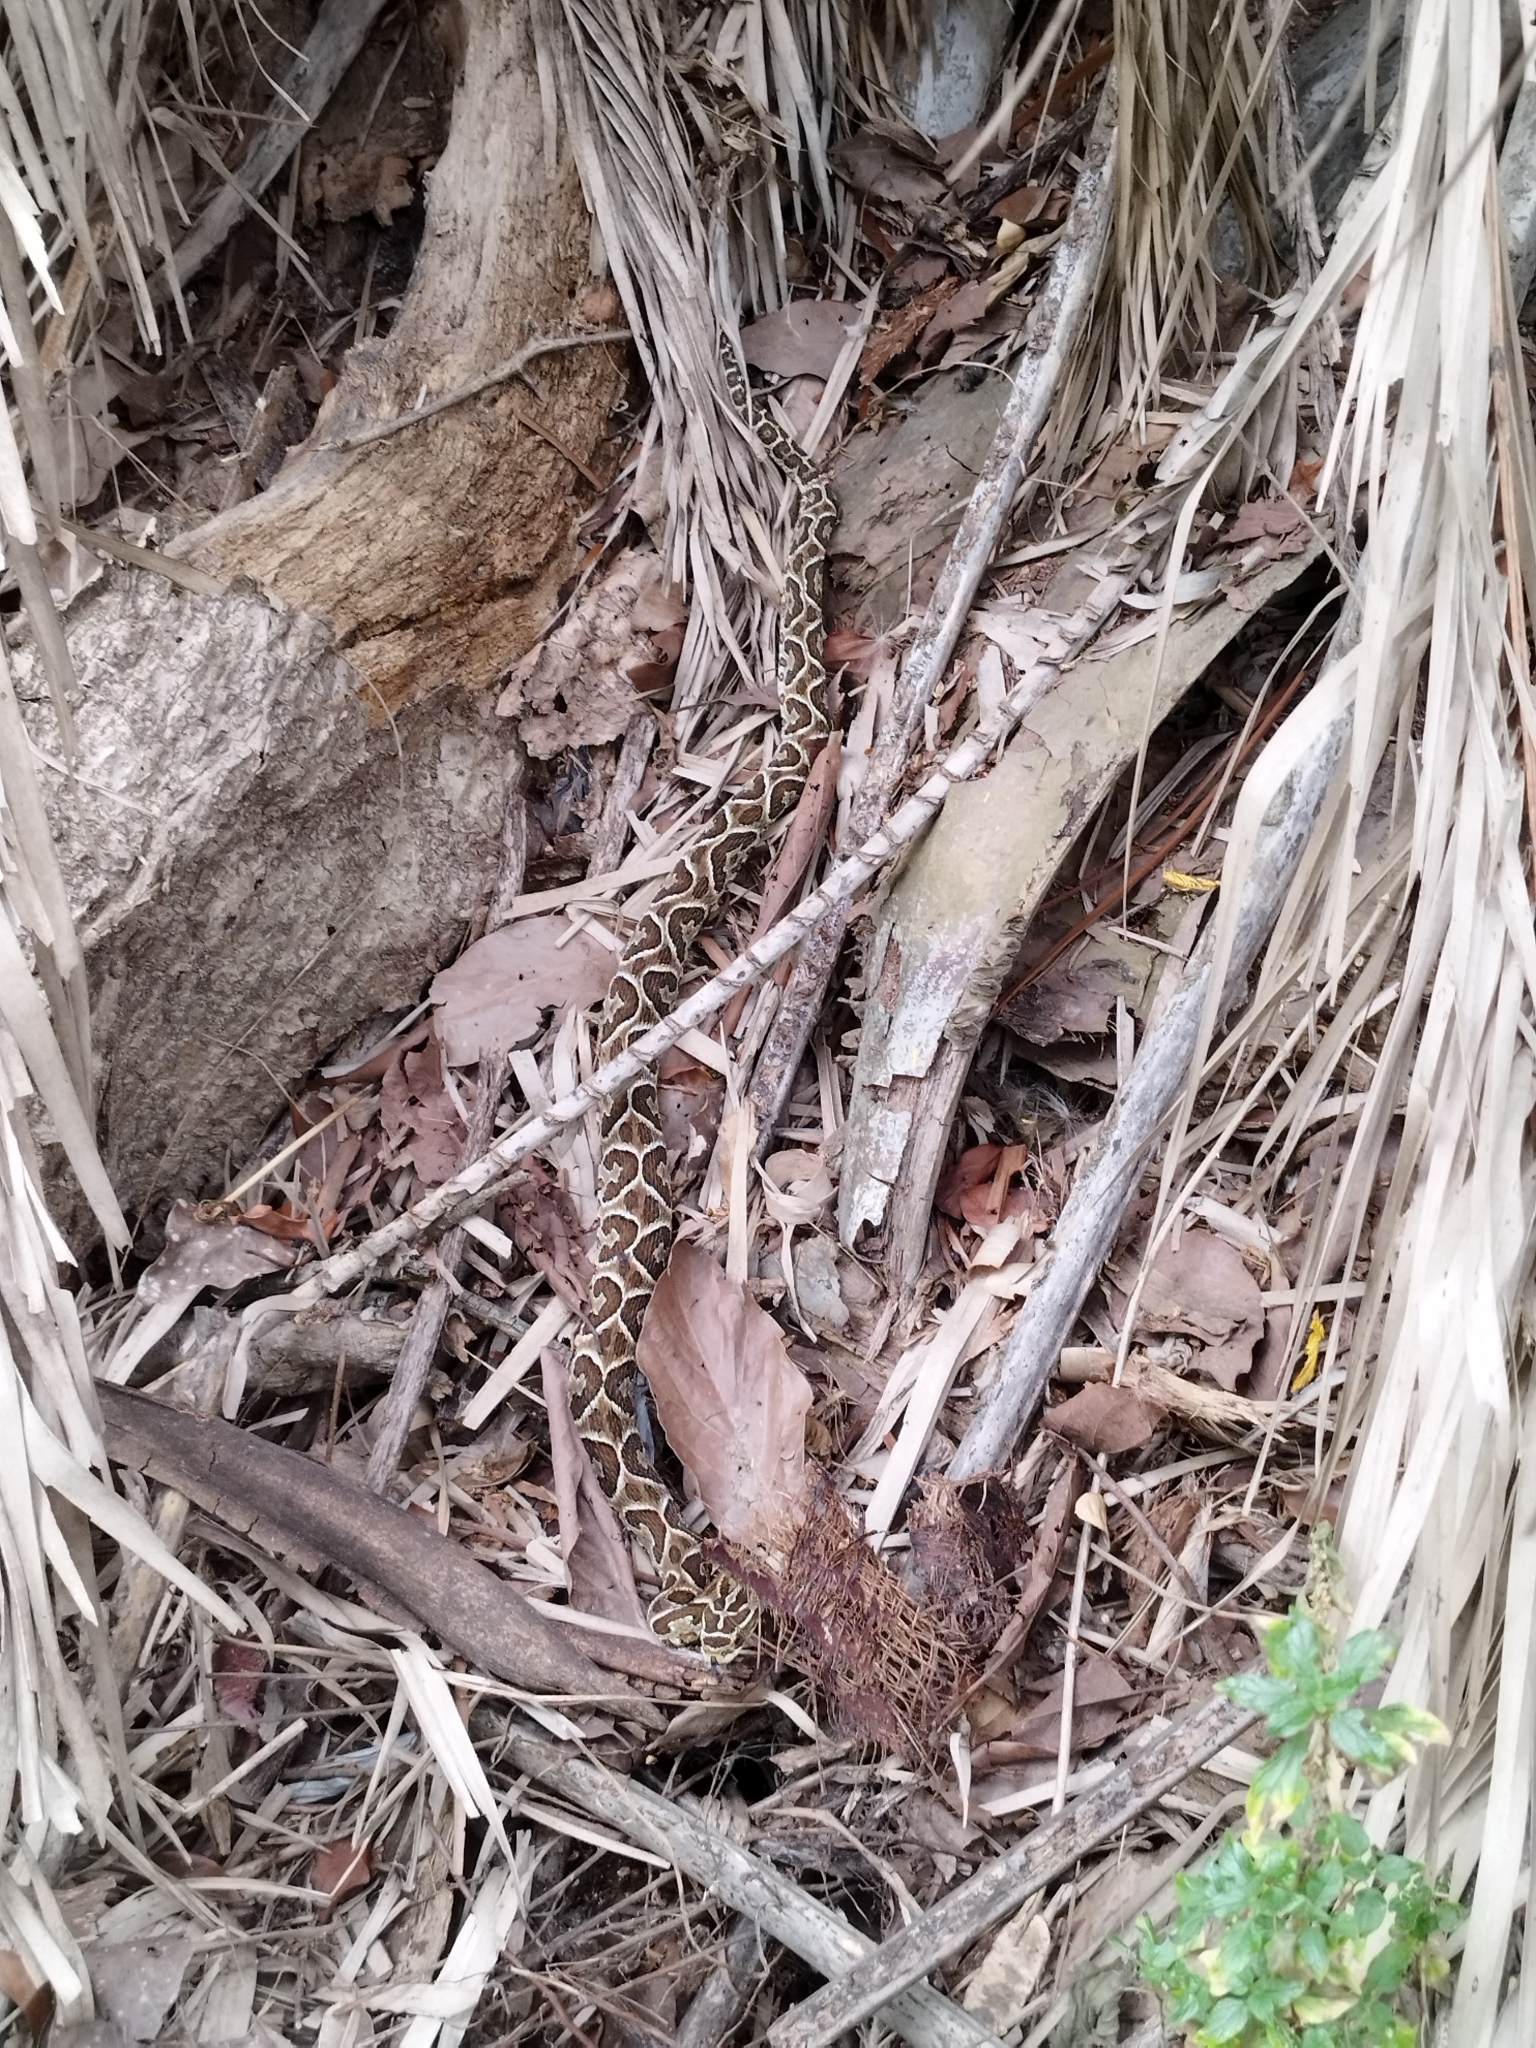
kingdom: Animalia
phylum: Chordata
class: Squamata
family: Viperidae
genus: Bothrops
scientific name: Bothrops alternatus
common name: Urutu
